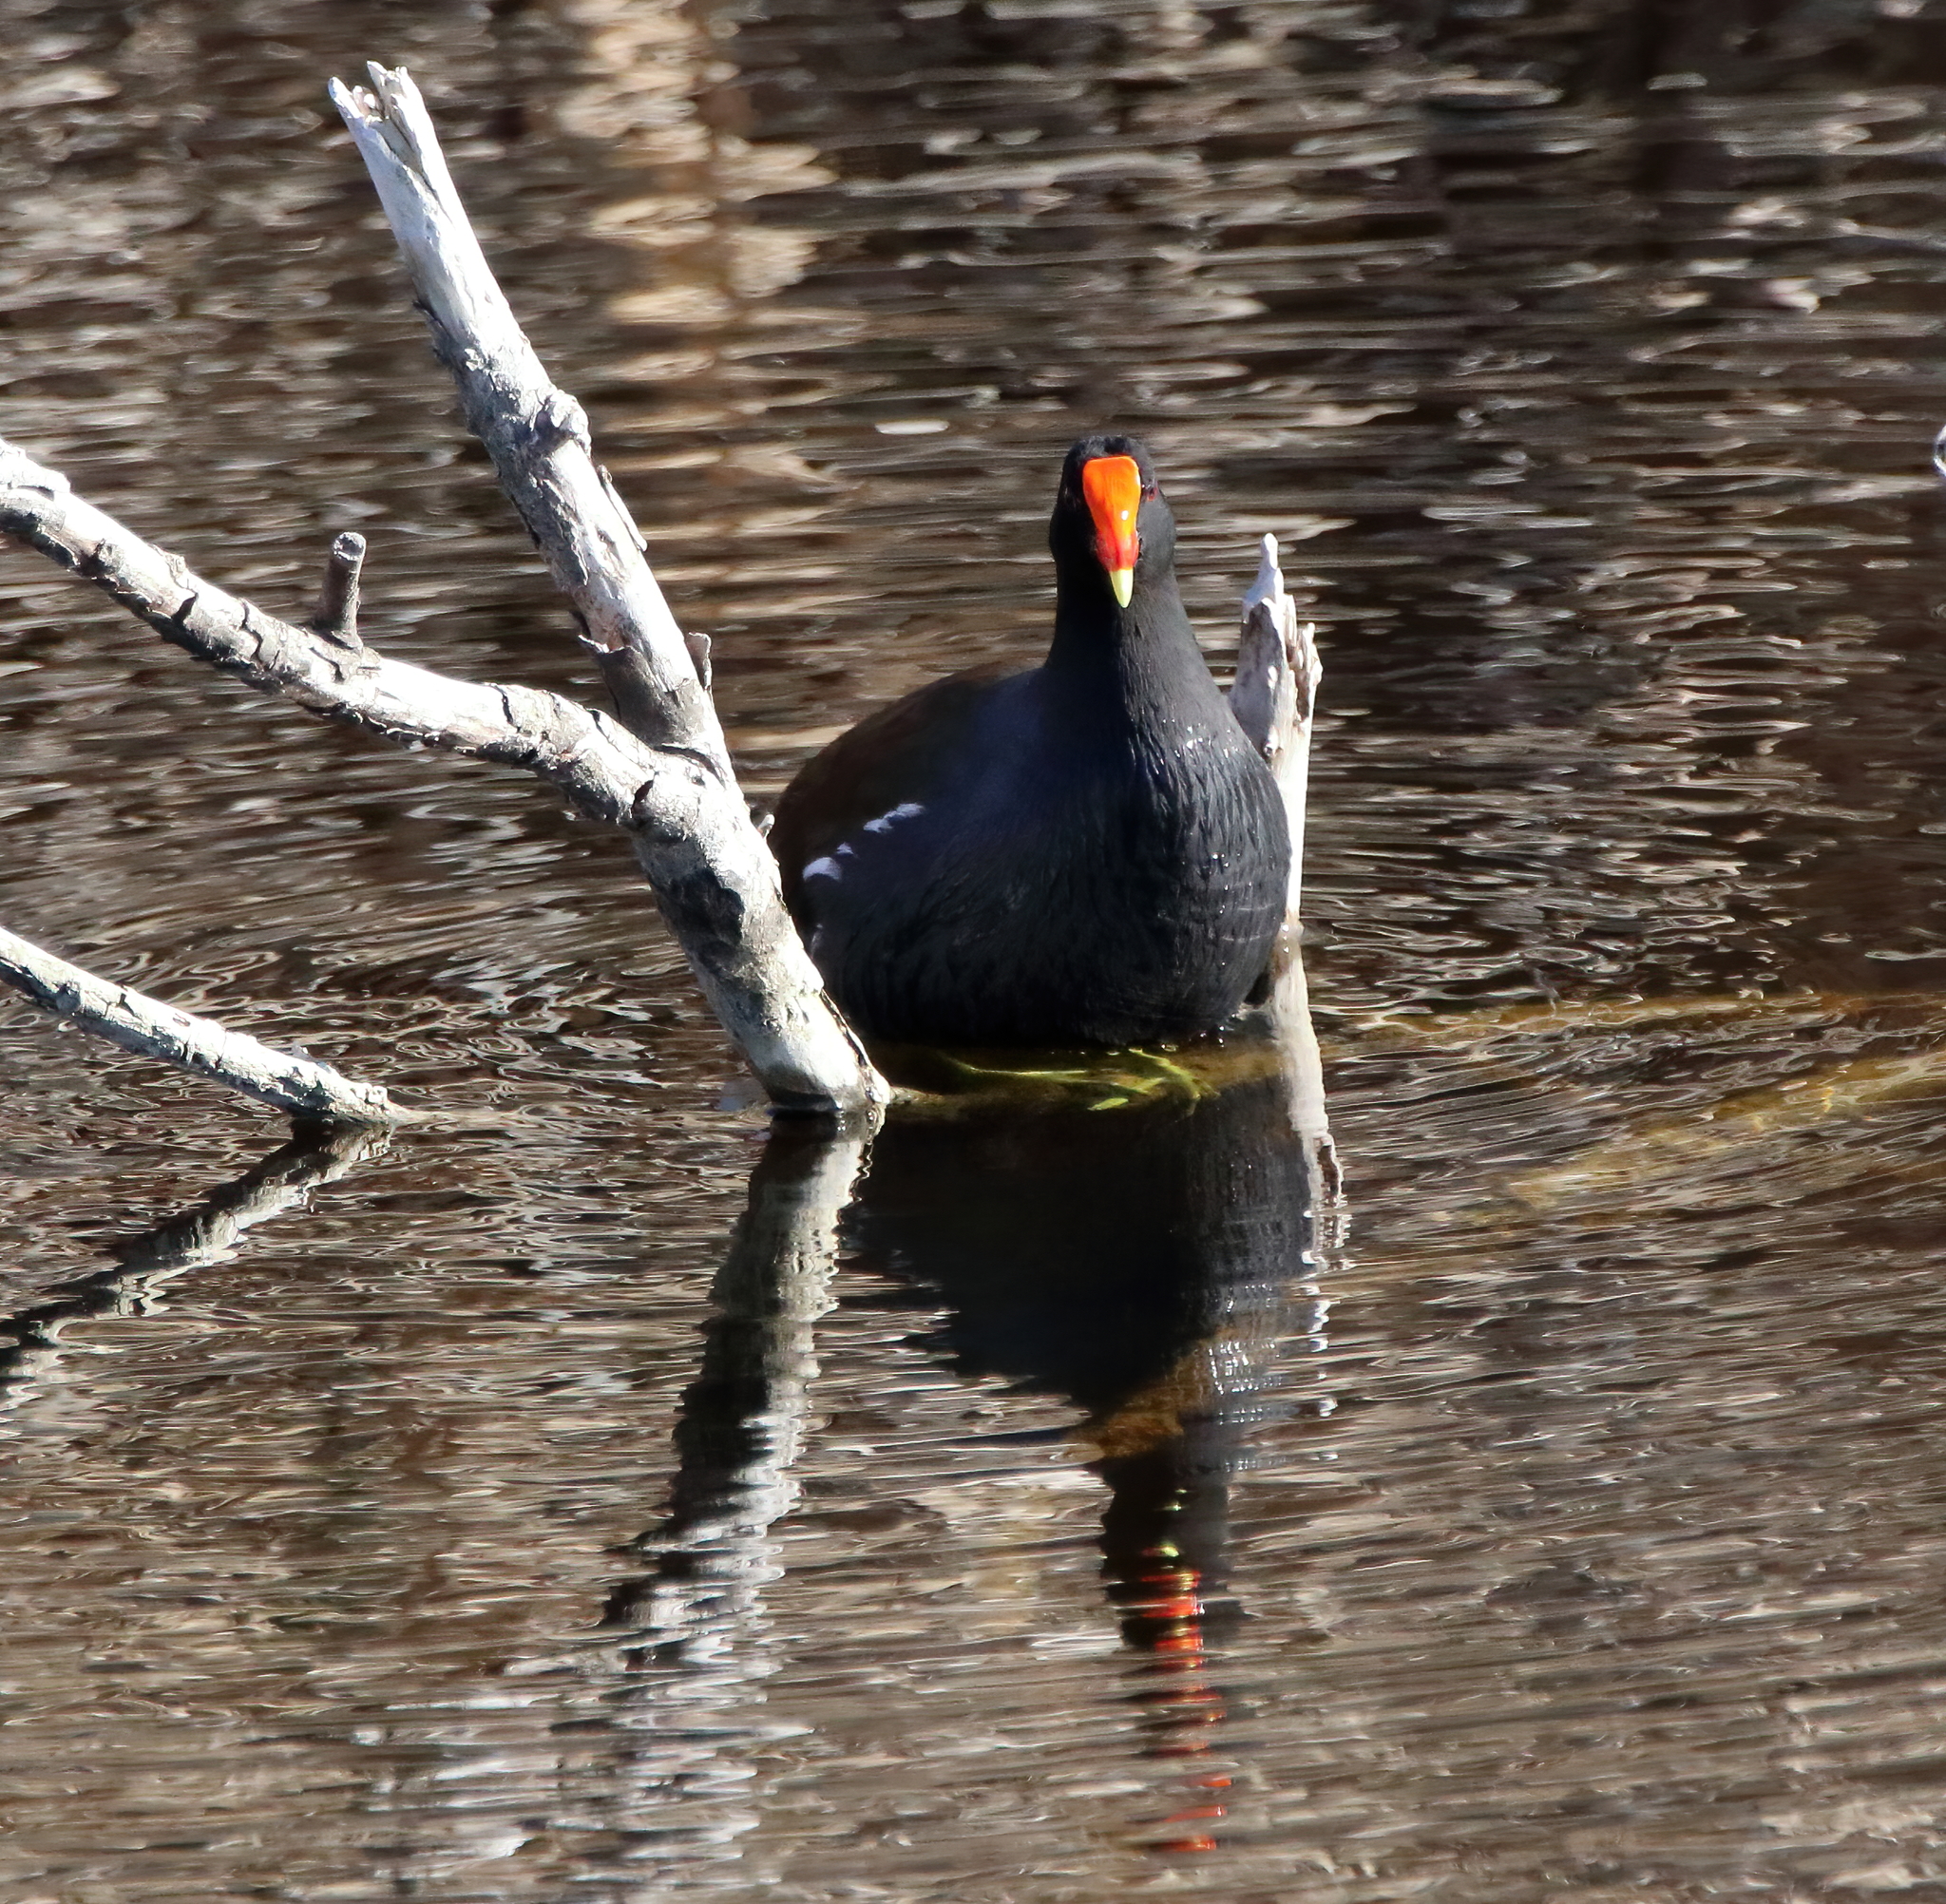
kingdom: Animalia
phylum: Chordata
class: Aves
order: Gruiformes
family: Rallidae
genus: Gallinula
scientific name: Gallinula chloropus
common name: Common moorhen
